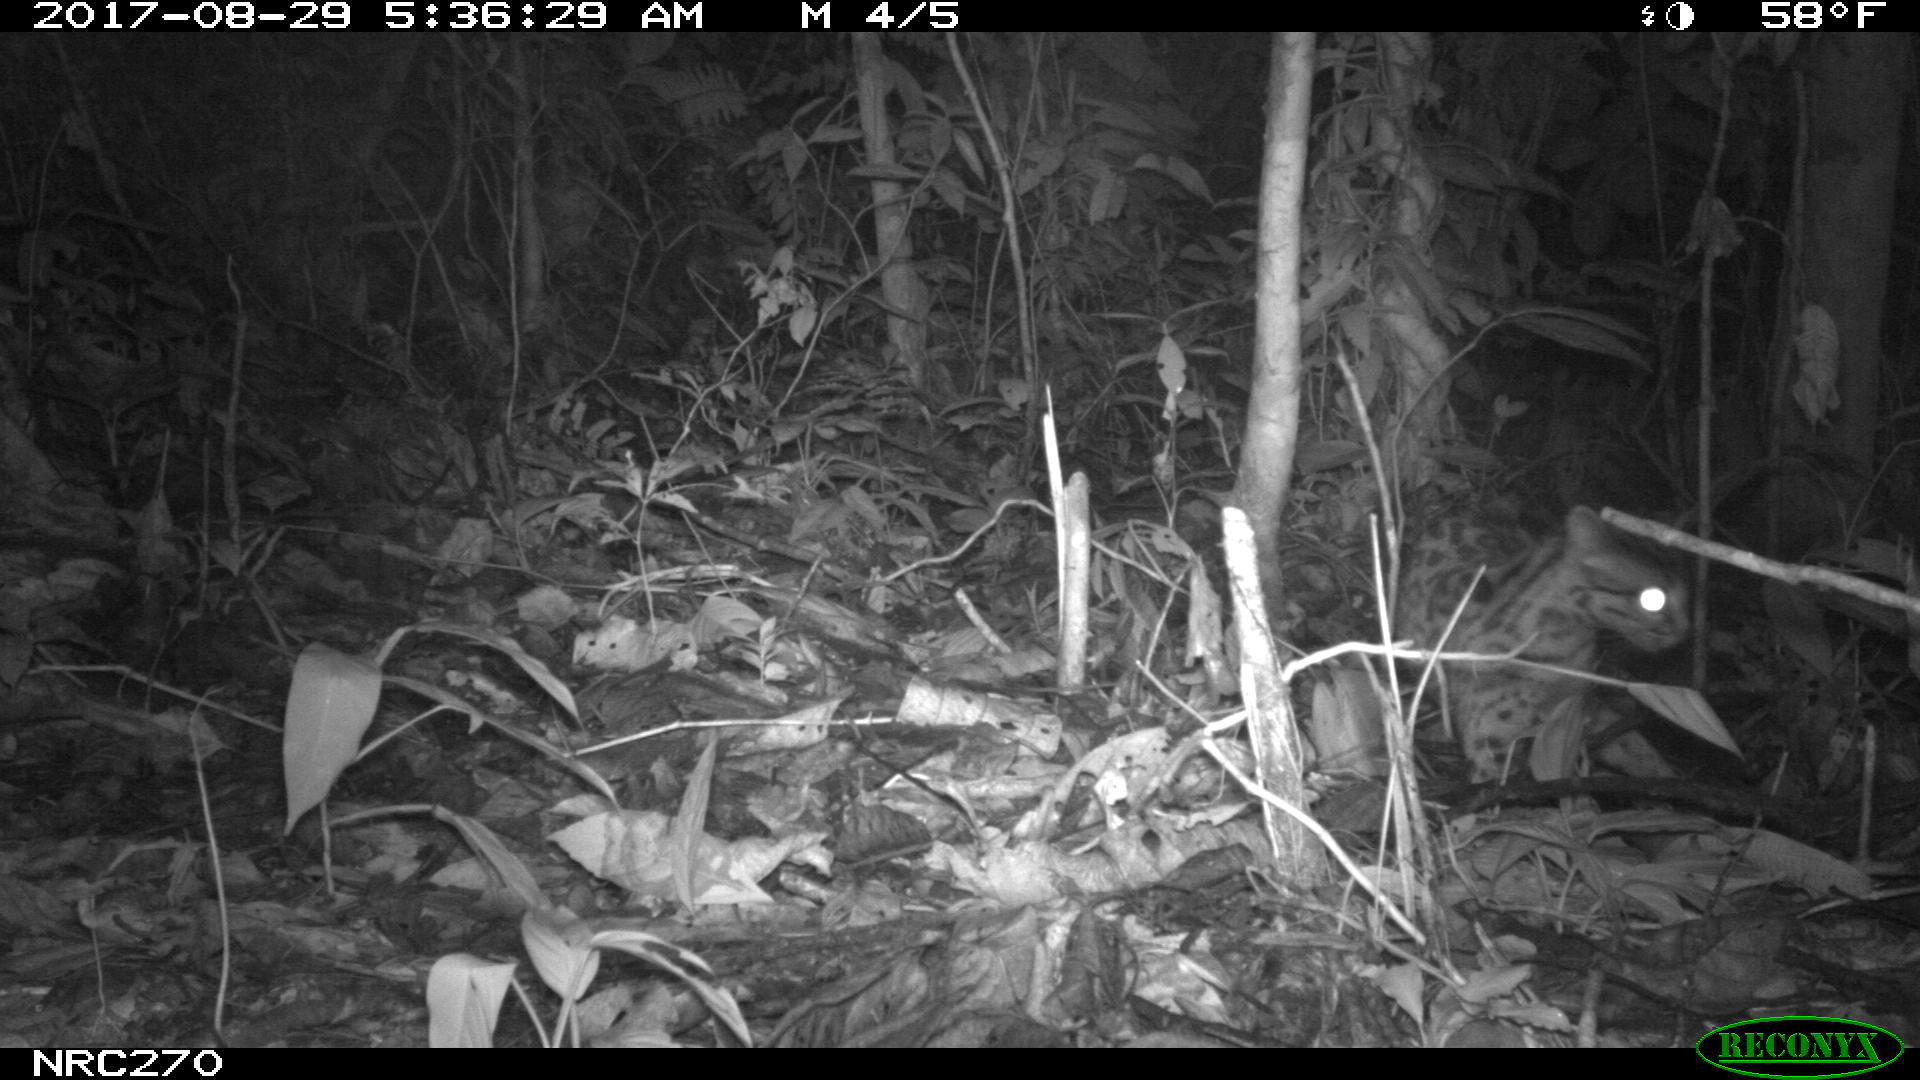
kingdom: Animalia
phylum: Chordata
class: Mammalia
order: Carnivora
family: Felidae
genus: Leopardus
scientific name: Leopardus tigrinus
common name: Oncilla
